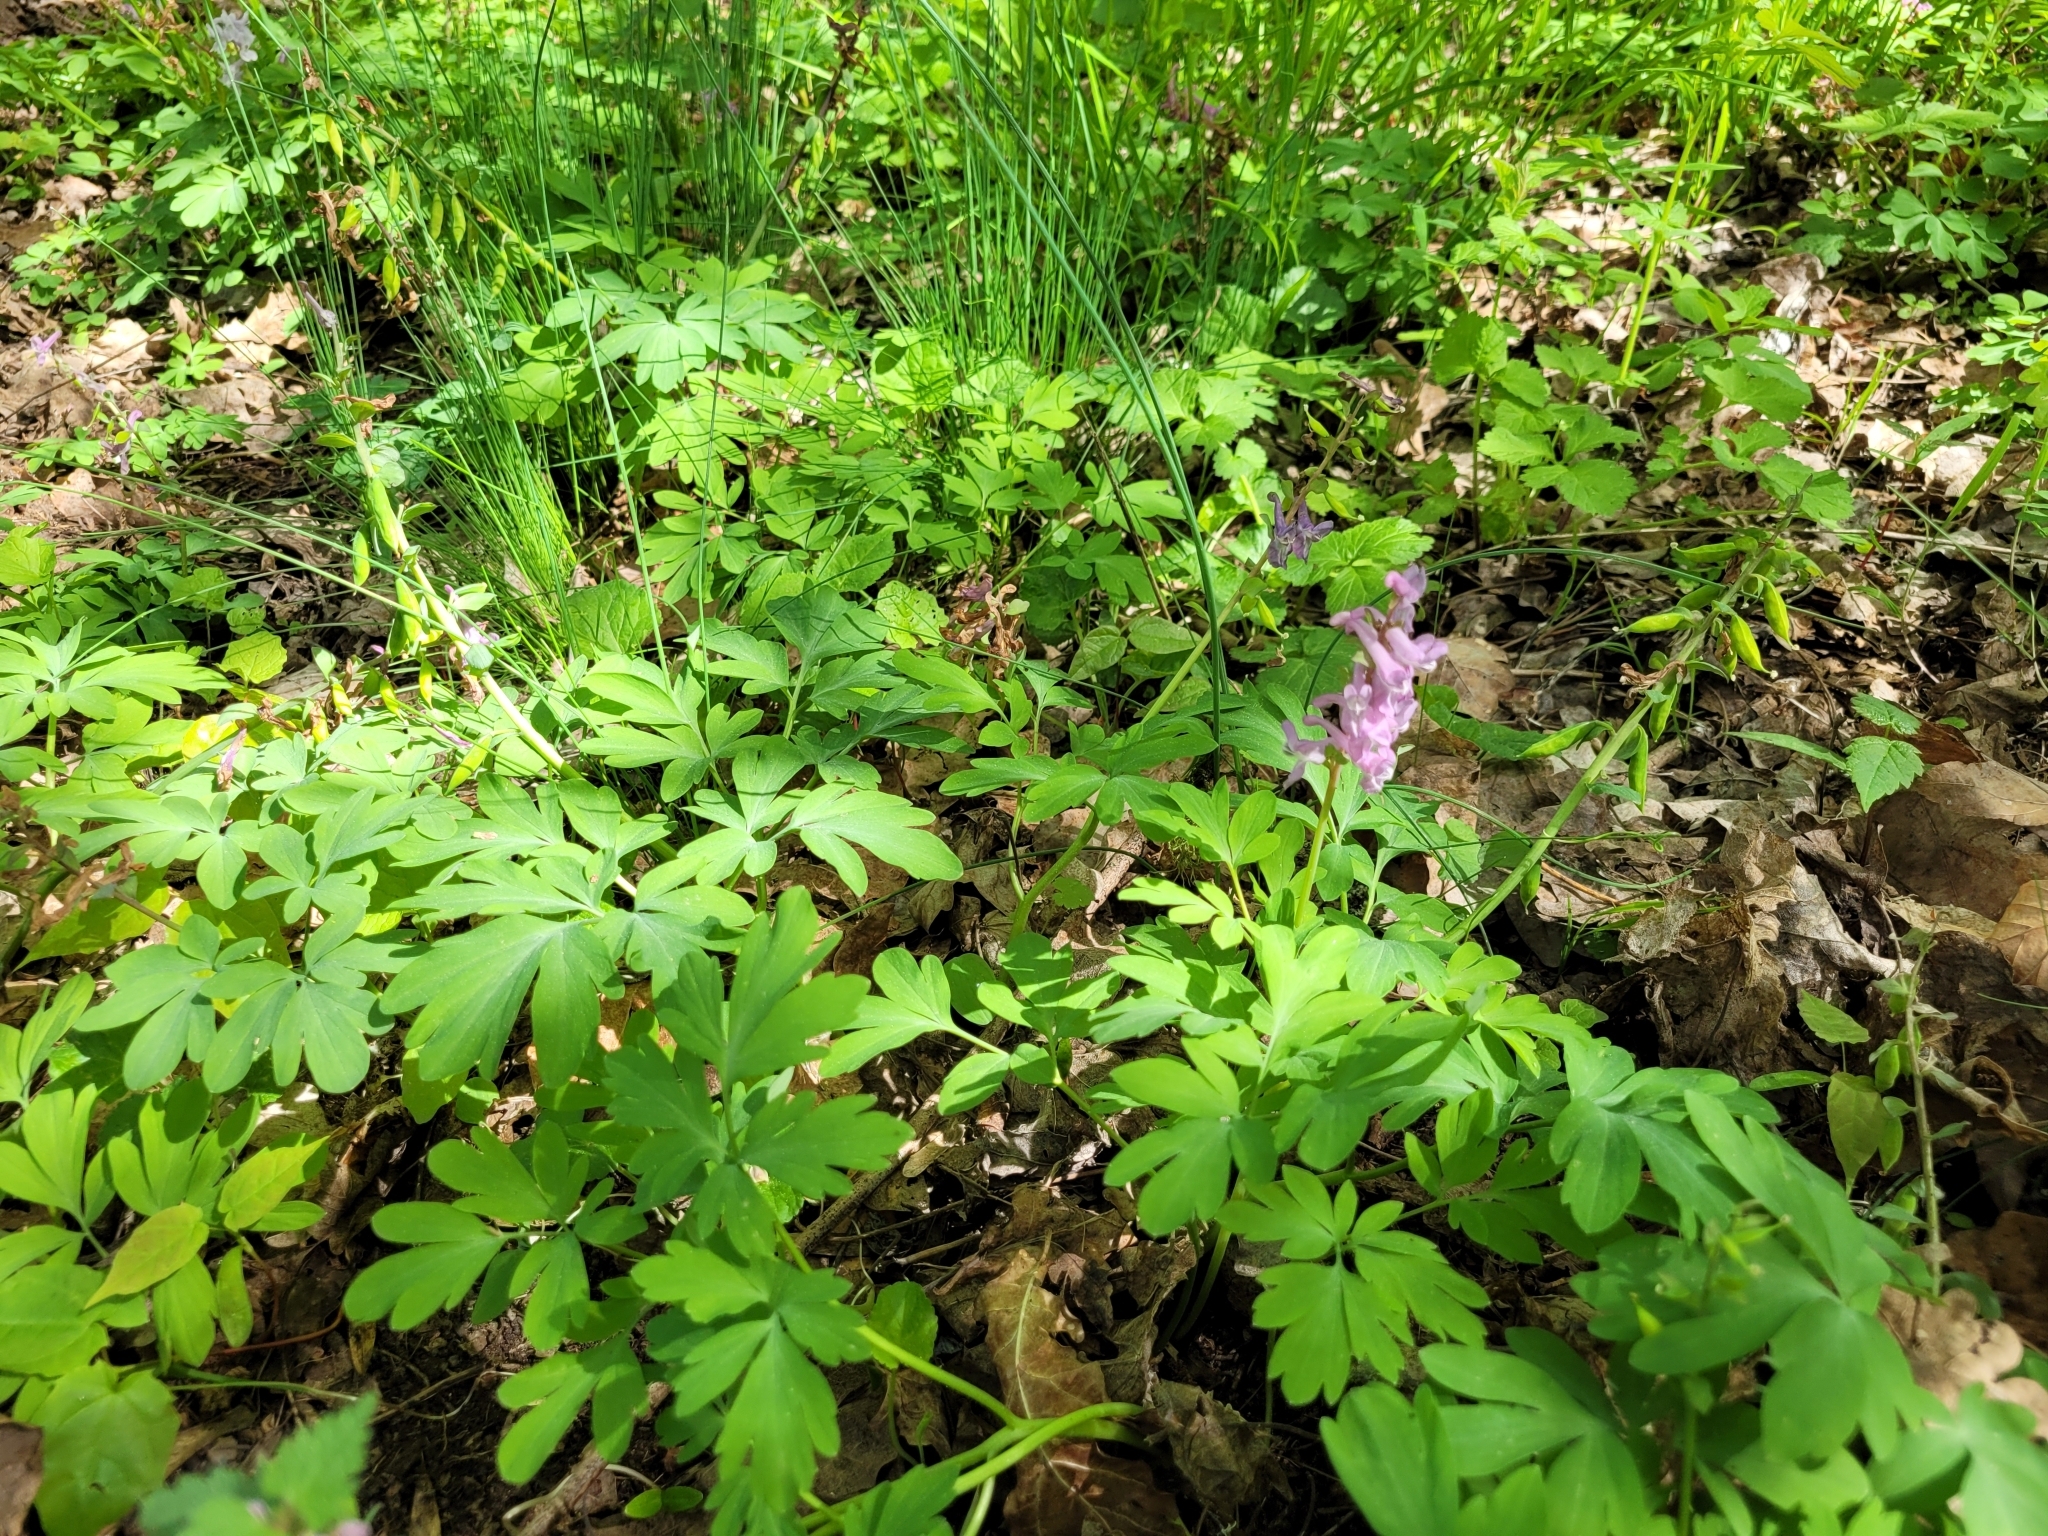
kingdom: Plantae
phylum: Tracheophyta
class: Magnoliopsida
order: Ranunculales
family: Papaveraceae
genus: Corydalis
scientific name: Corydalis cava
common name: Hollowroot
